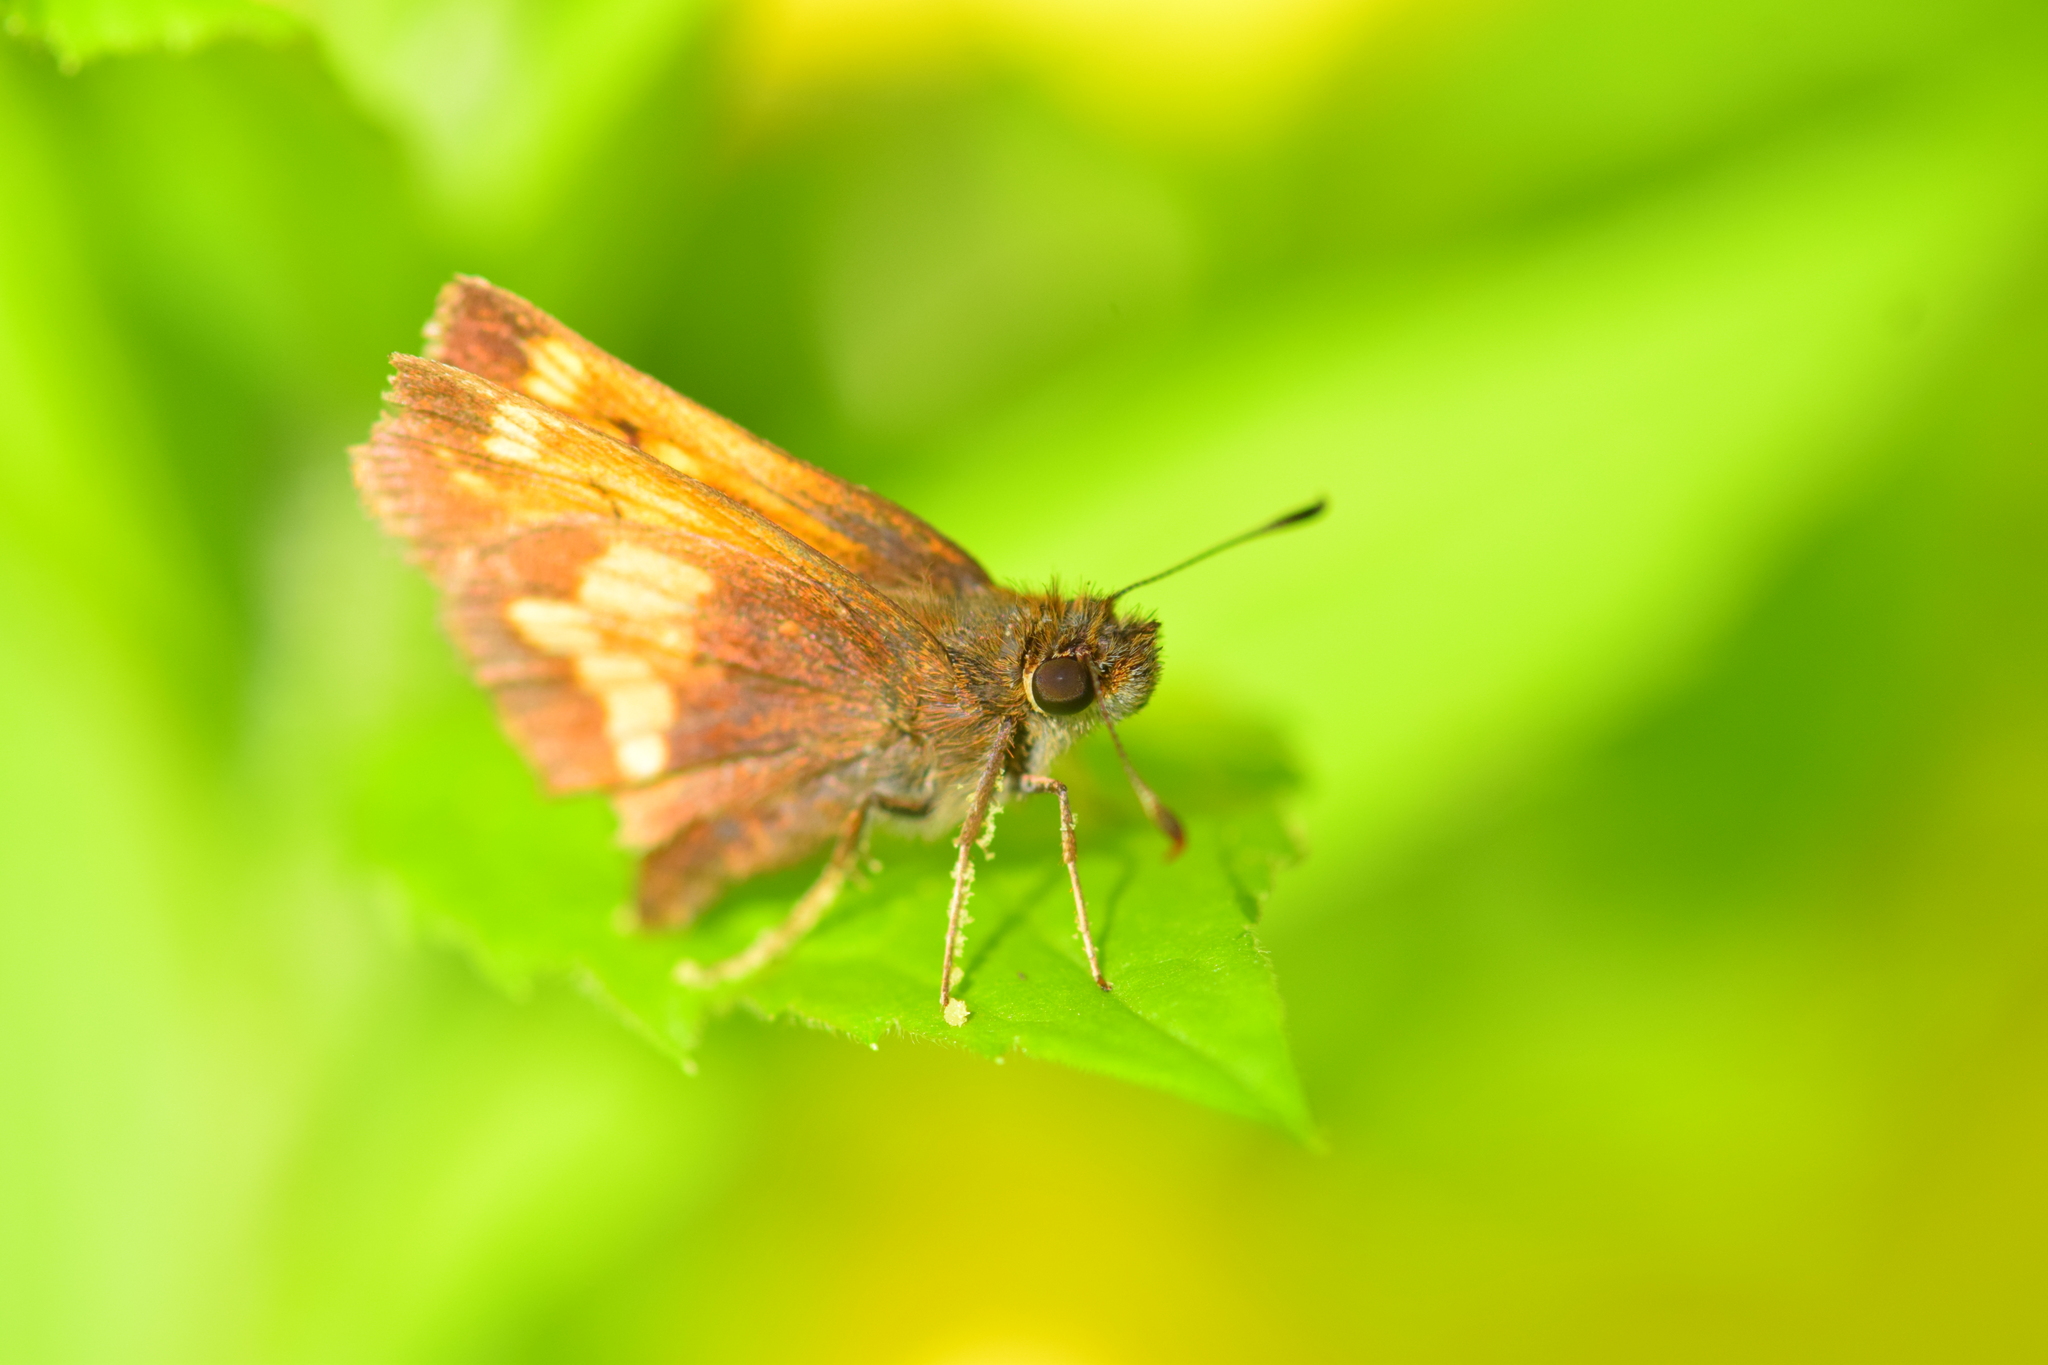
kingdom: Animalia
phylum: Arthropoda
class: Insecta
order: Lepidoptera
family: Hesperiidae
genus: Lon
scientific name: Lon hobomok
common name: Hobomok skipper
